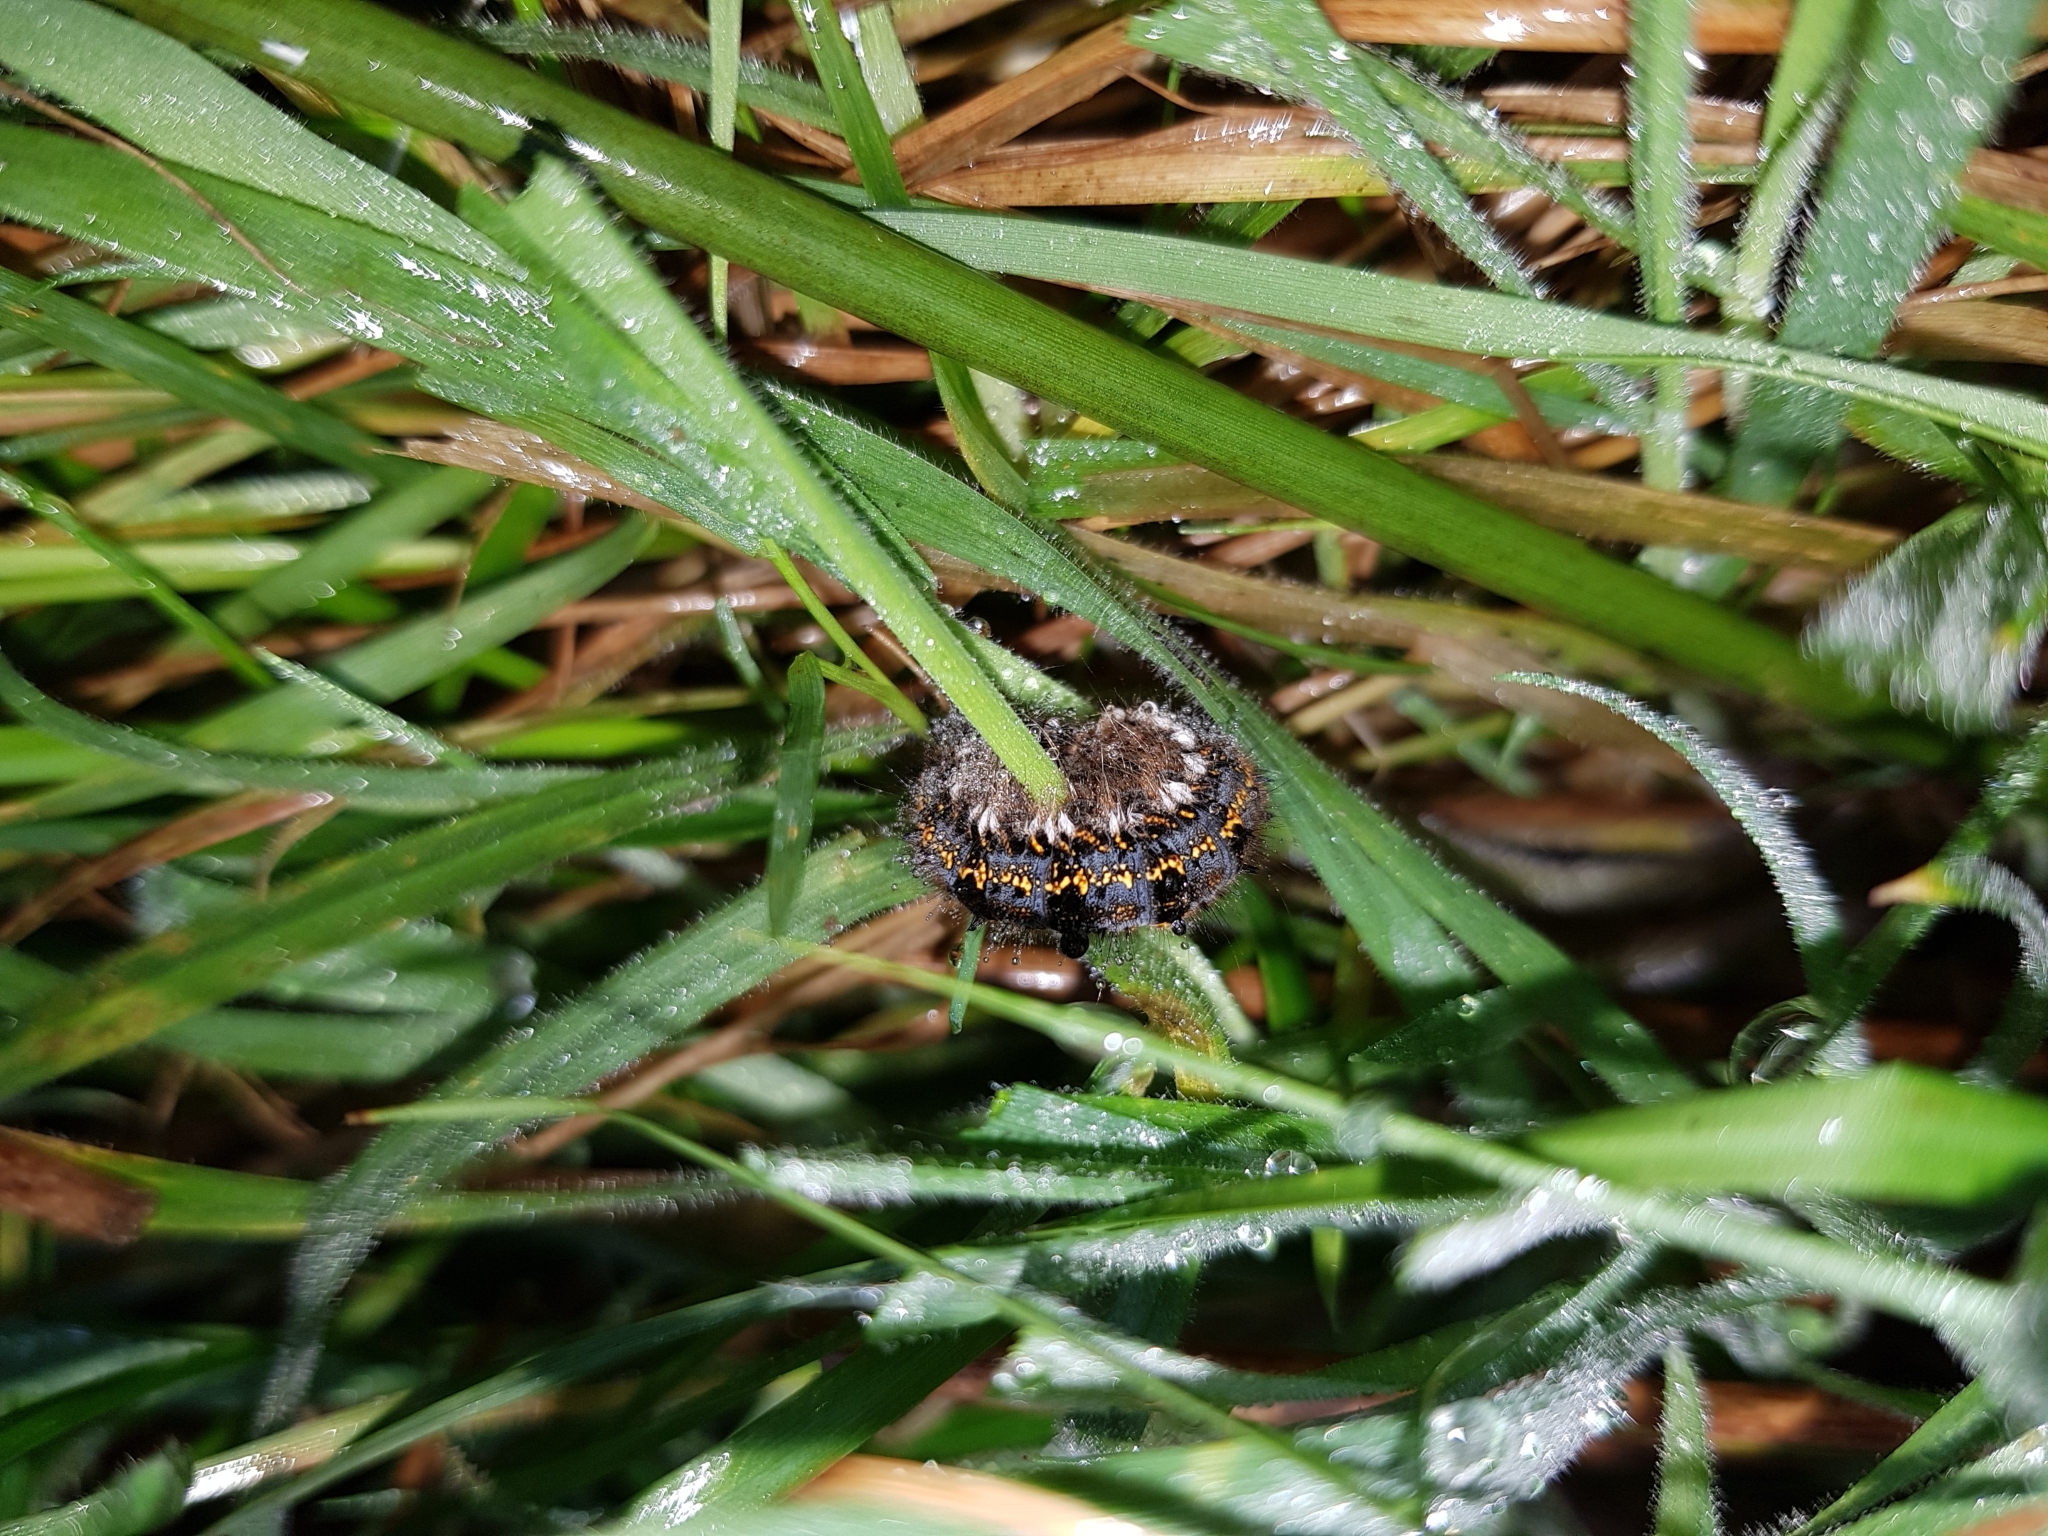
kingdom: Animalia
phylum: Arthropoda
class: Insecta
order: Lepidoptera
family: Lasiocampidae
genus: Euthrix
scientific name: Euthrix potatoria
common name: Drinker
